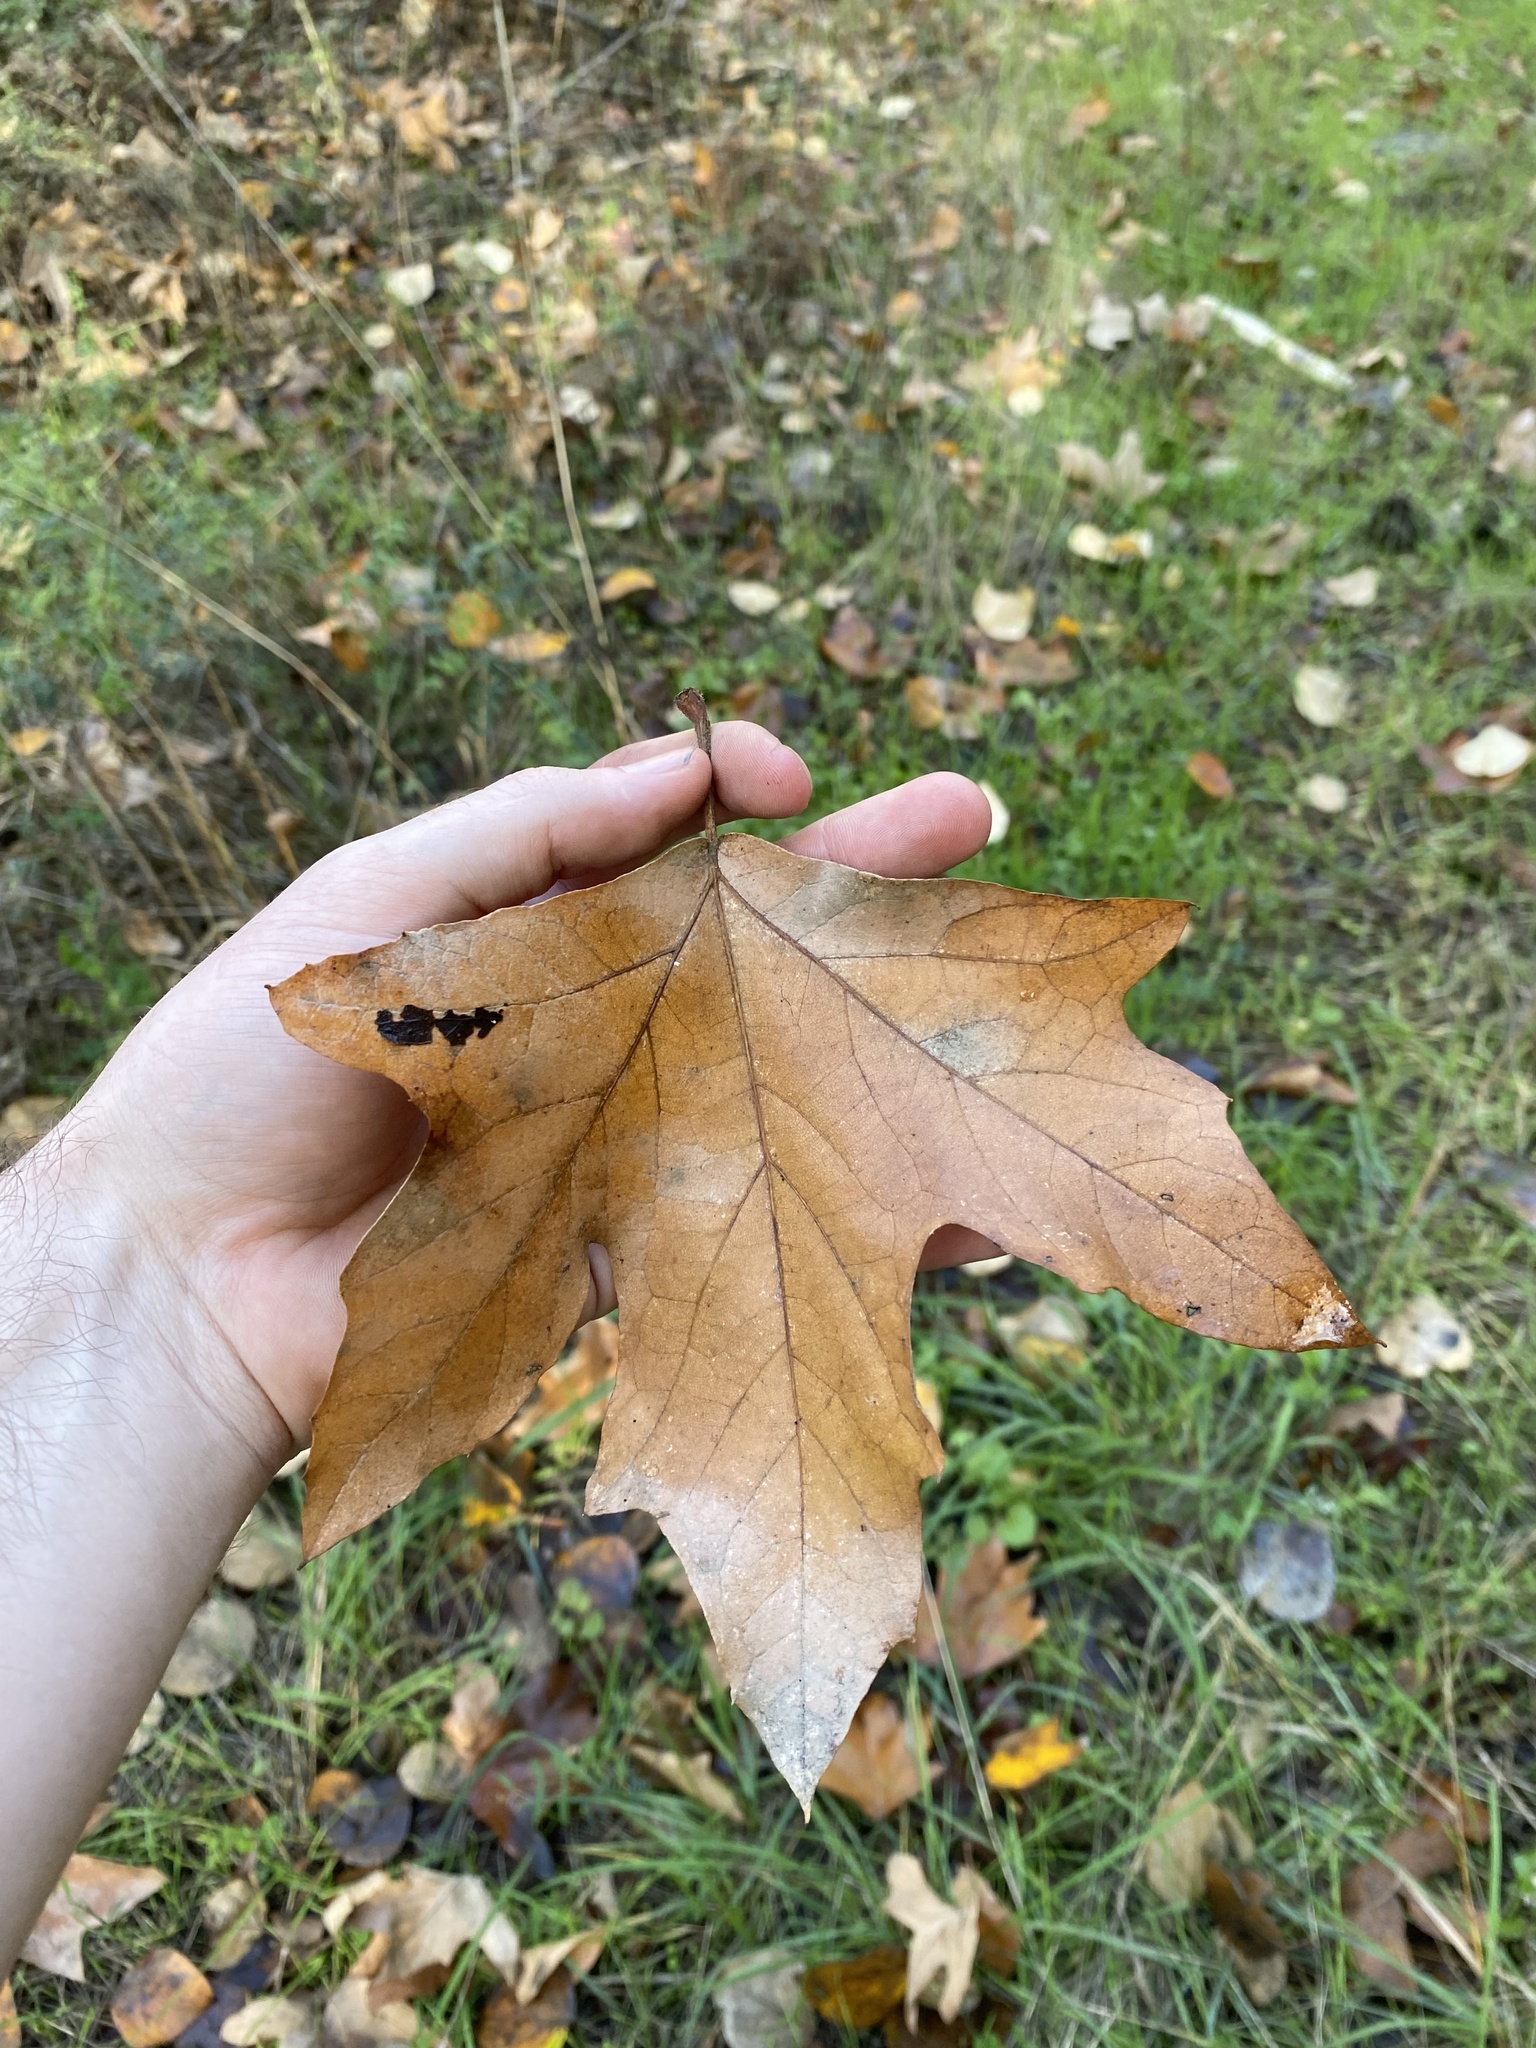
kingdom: Plantae
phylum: Tracheophyta
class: Magnoliopsida
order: Proteales
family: Platanaceae
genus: Platanus
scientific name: Platanus racemosa
